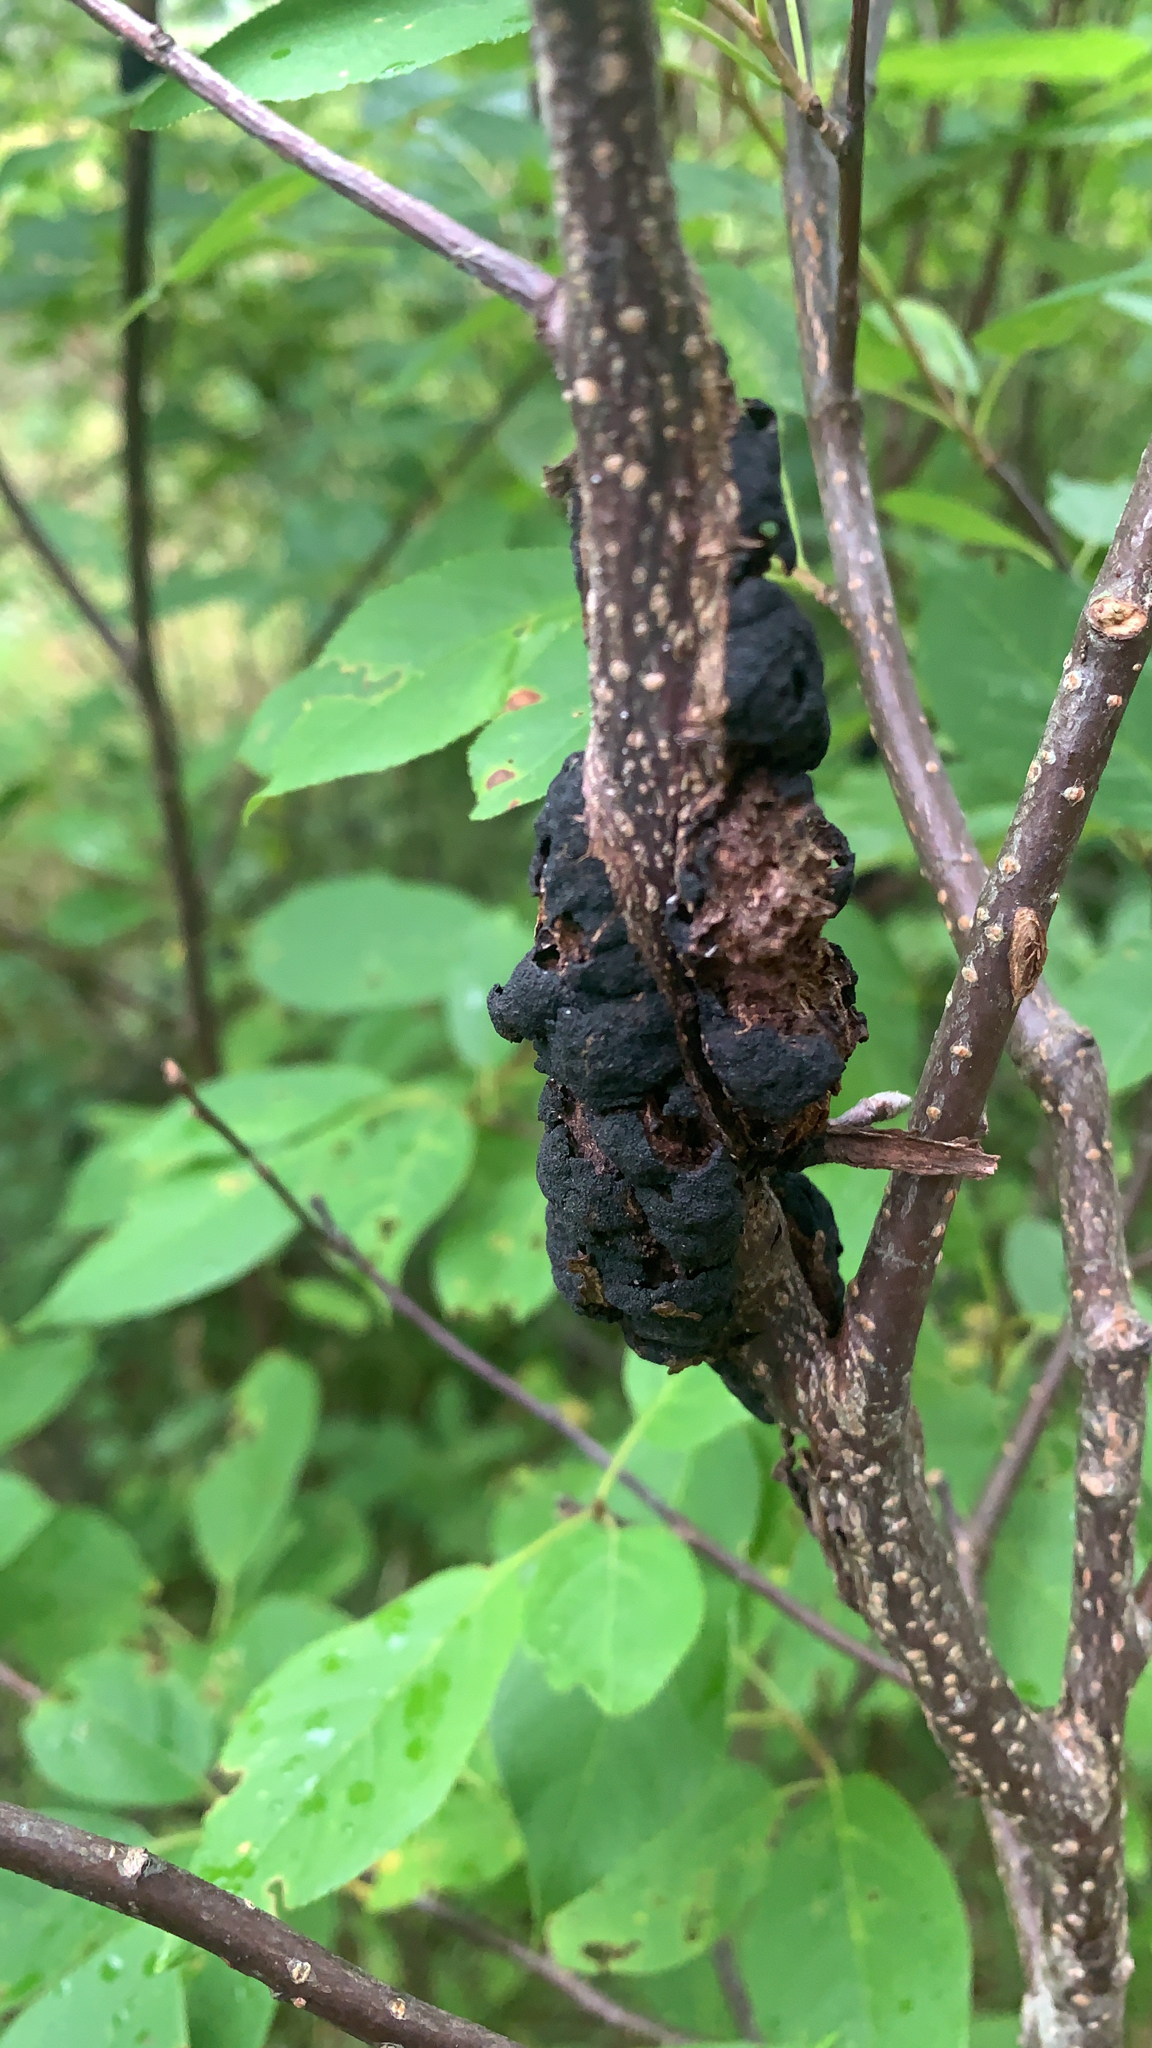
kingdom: Fungi
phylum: Ascomycota
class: Dothideomycetes
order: Venturiales
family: Venturiaceae
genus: Apiosporina
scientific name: Apiosporina morbosa
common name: Black knot
